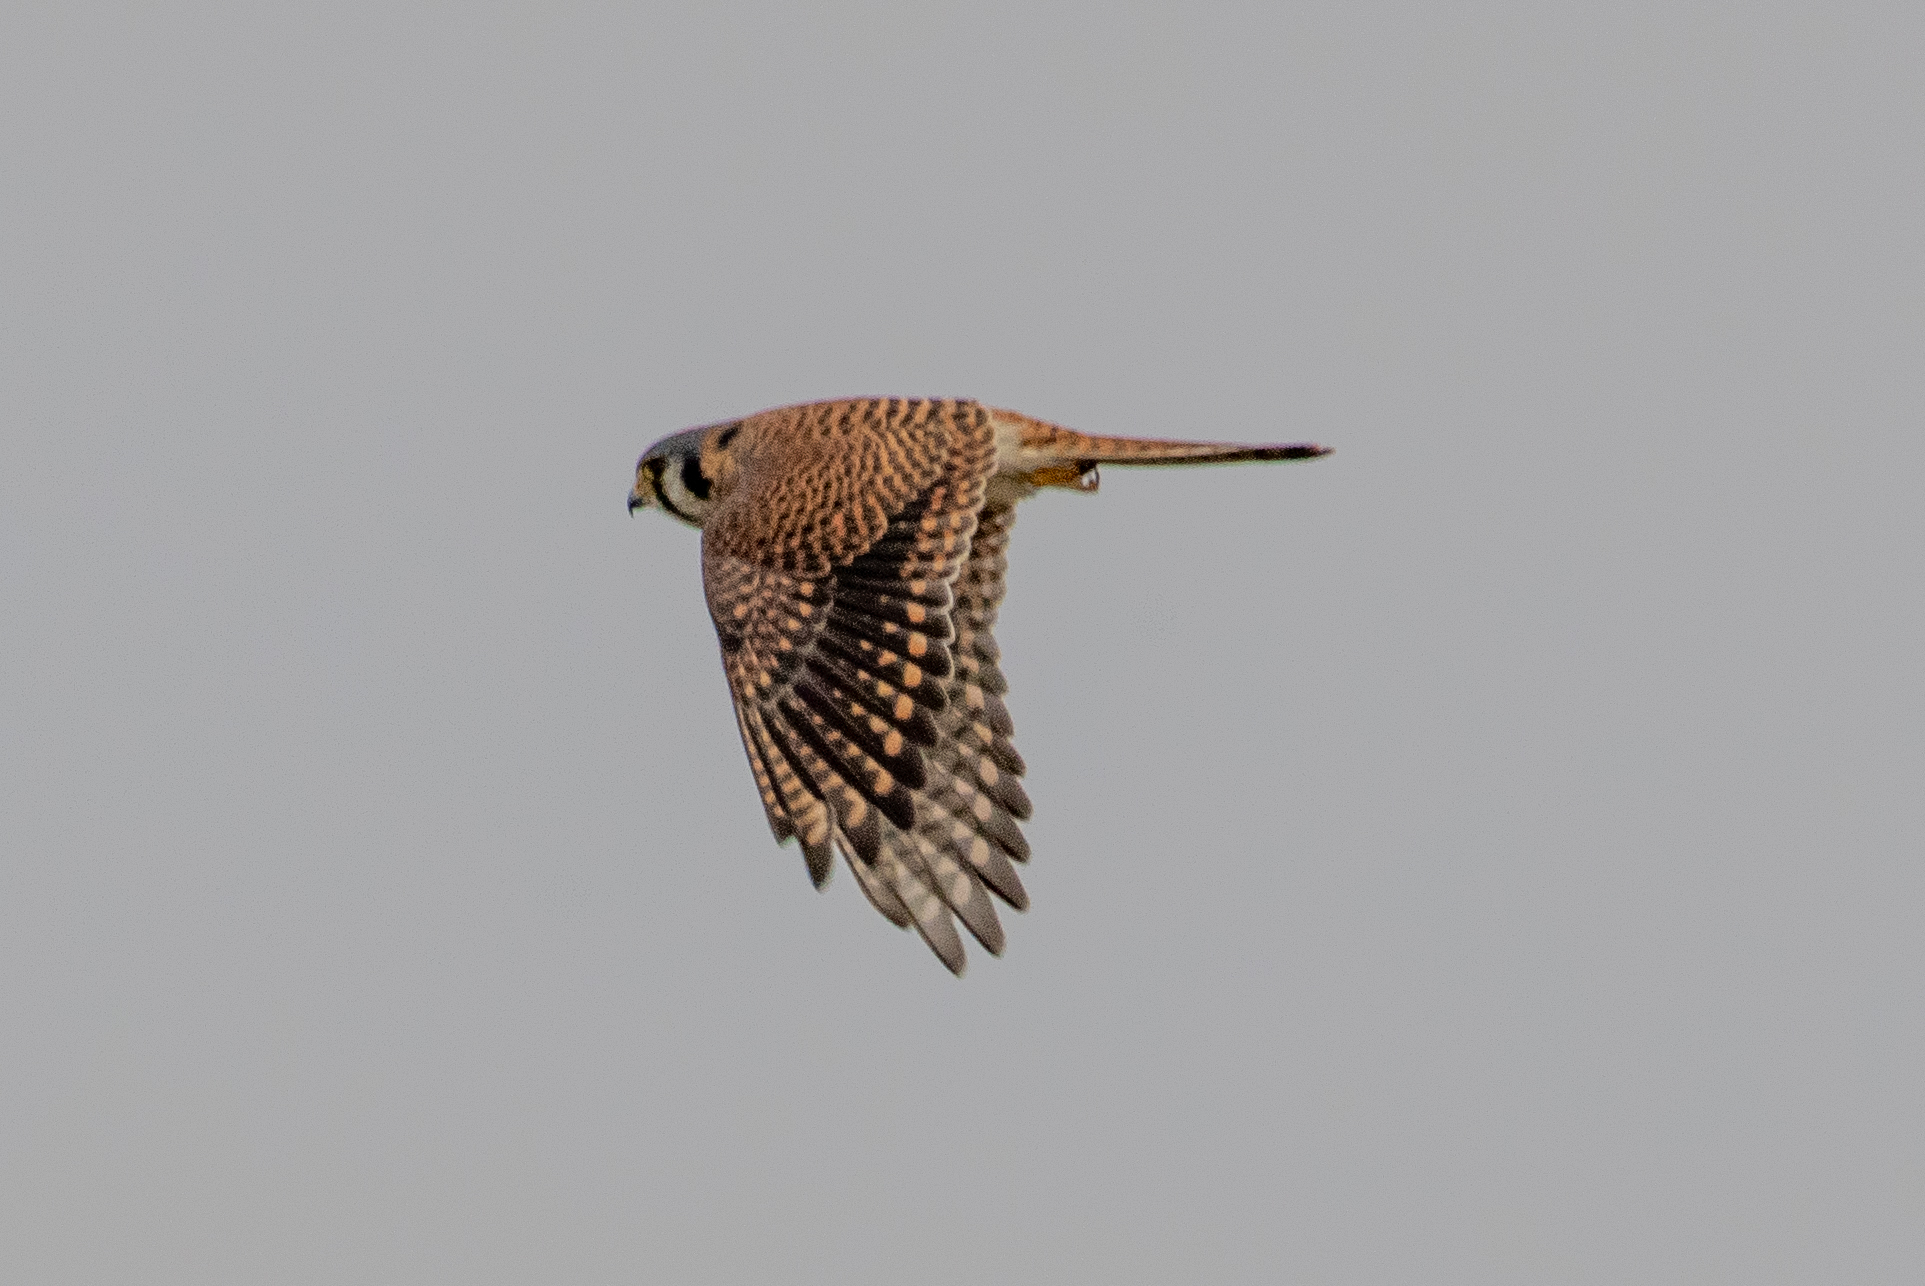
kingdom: Animalia
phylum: Chordata
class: Aves
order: Falconiformes
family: Falconidae
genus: Falco
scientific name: Falco sparverius
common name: American kestrel
